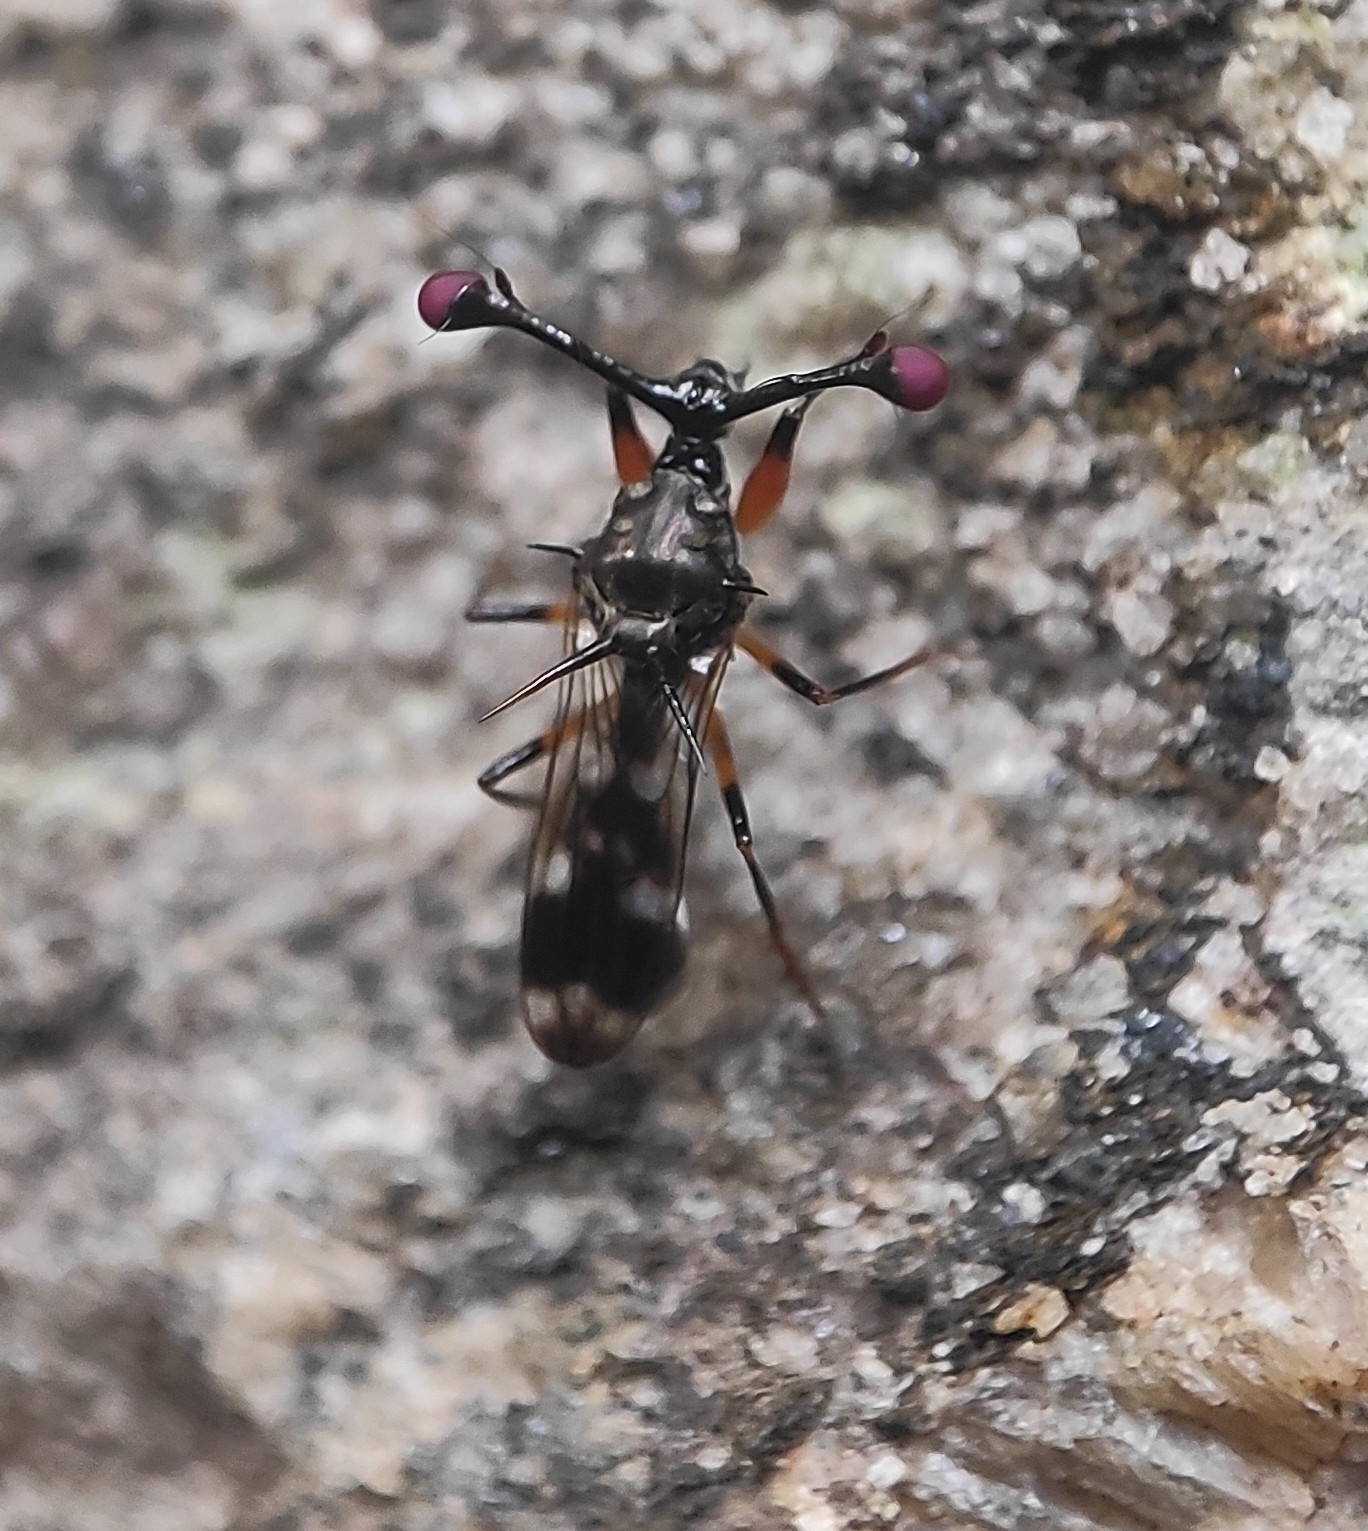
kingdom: Animalia
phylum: Arthropoda
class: Insecta
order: Diptera
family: Diopsidae
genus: Teleopsis
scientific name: Teleopsis sykesii
